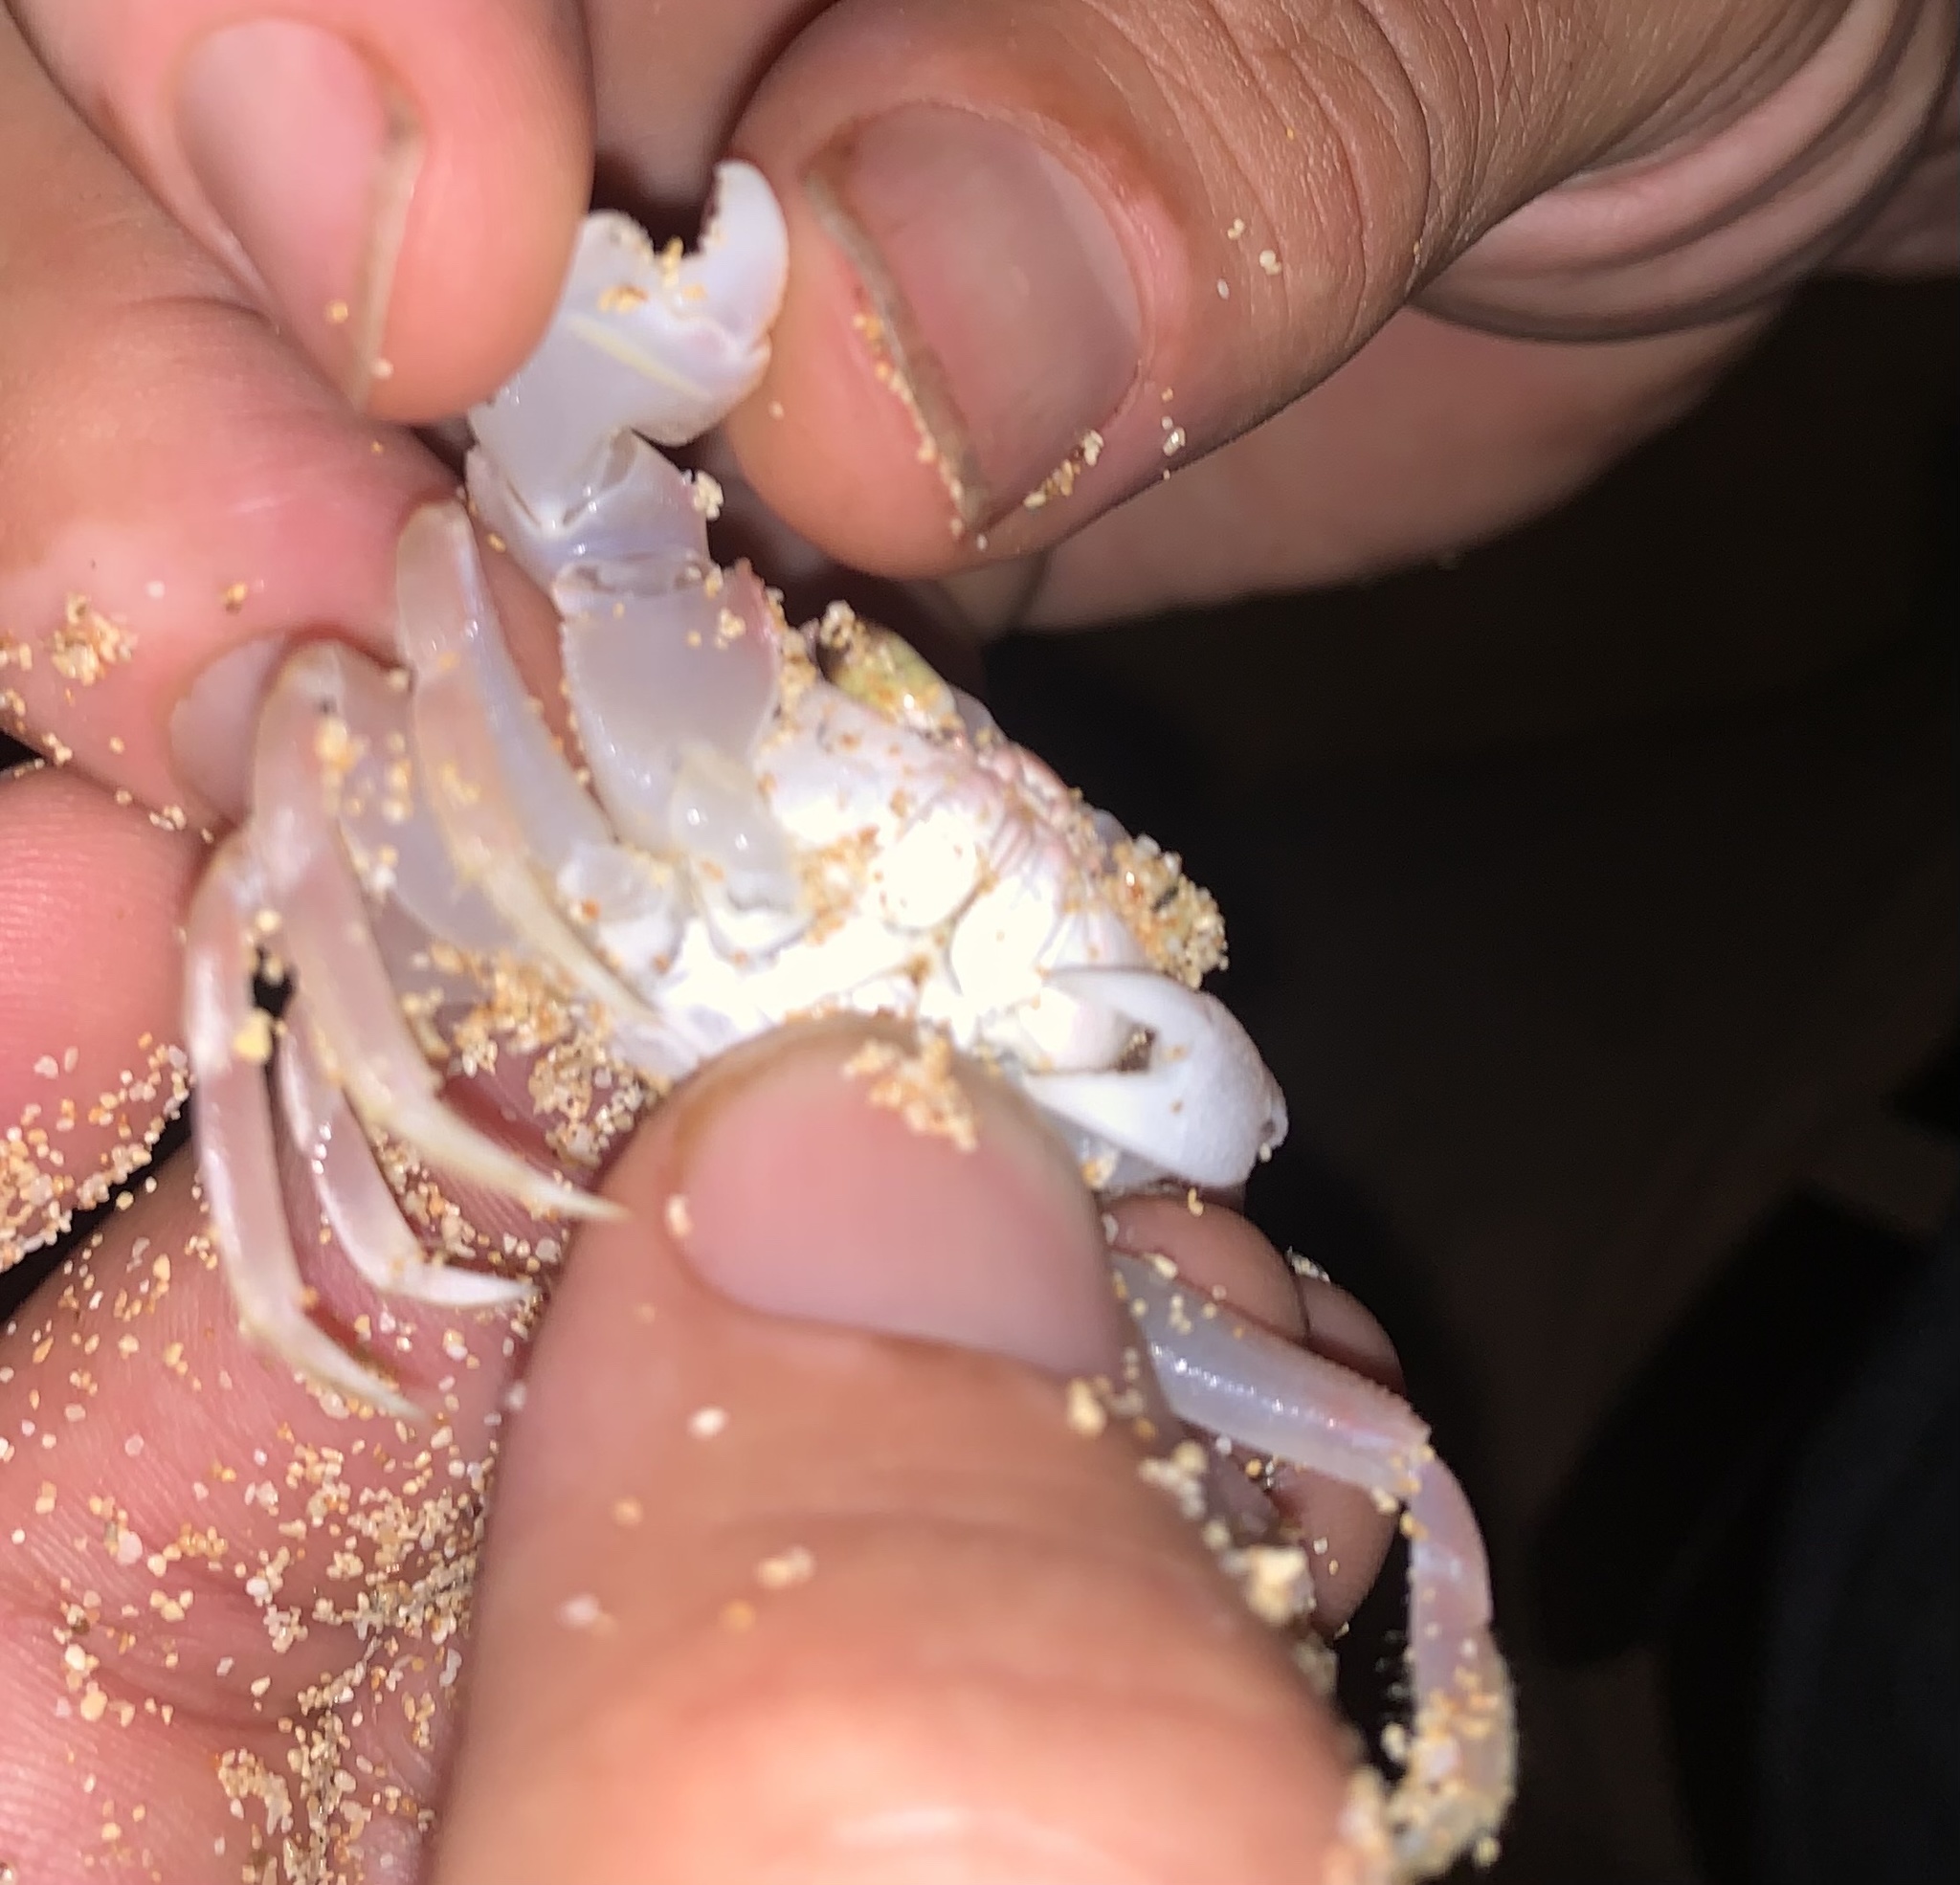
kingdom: Animalia
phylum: Arthropoda
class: Malacostraca
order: Decapoda
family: Ocypodidae
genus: Ocypode
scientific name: Ocypode pallidula
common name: Pallid ghost crab
